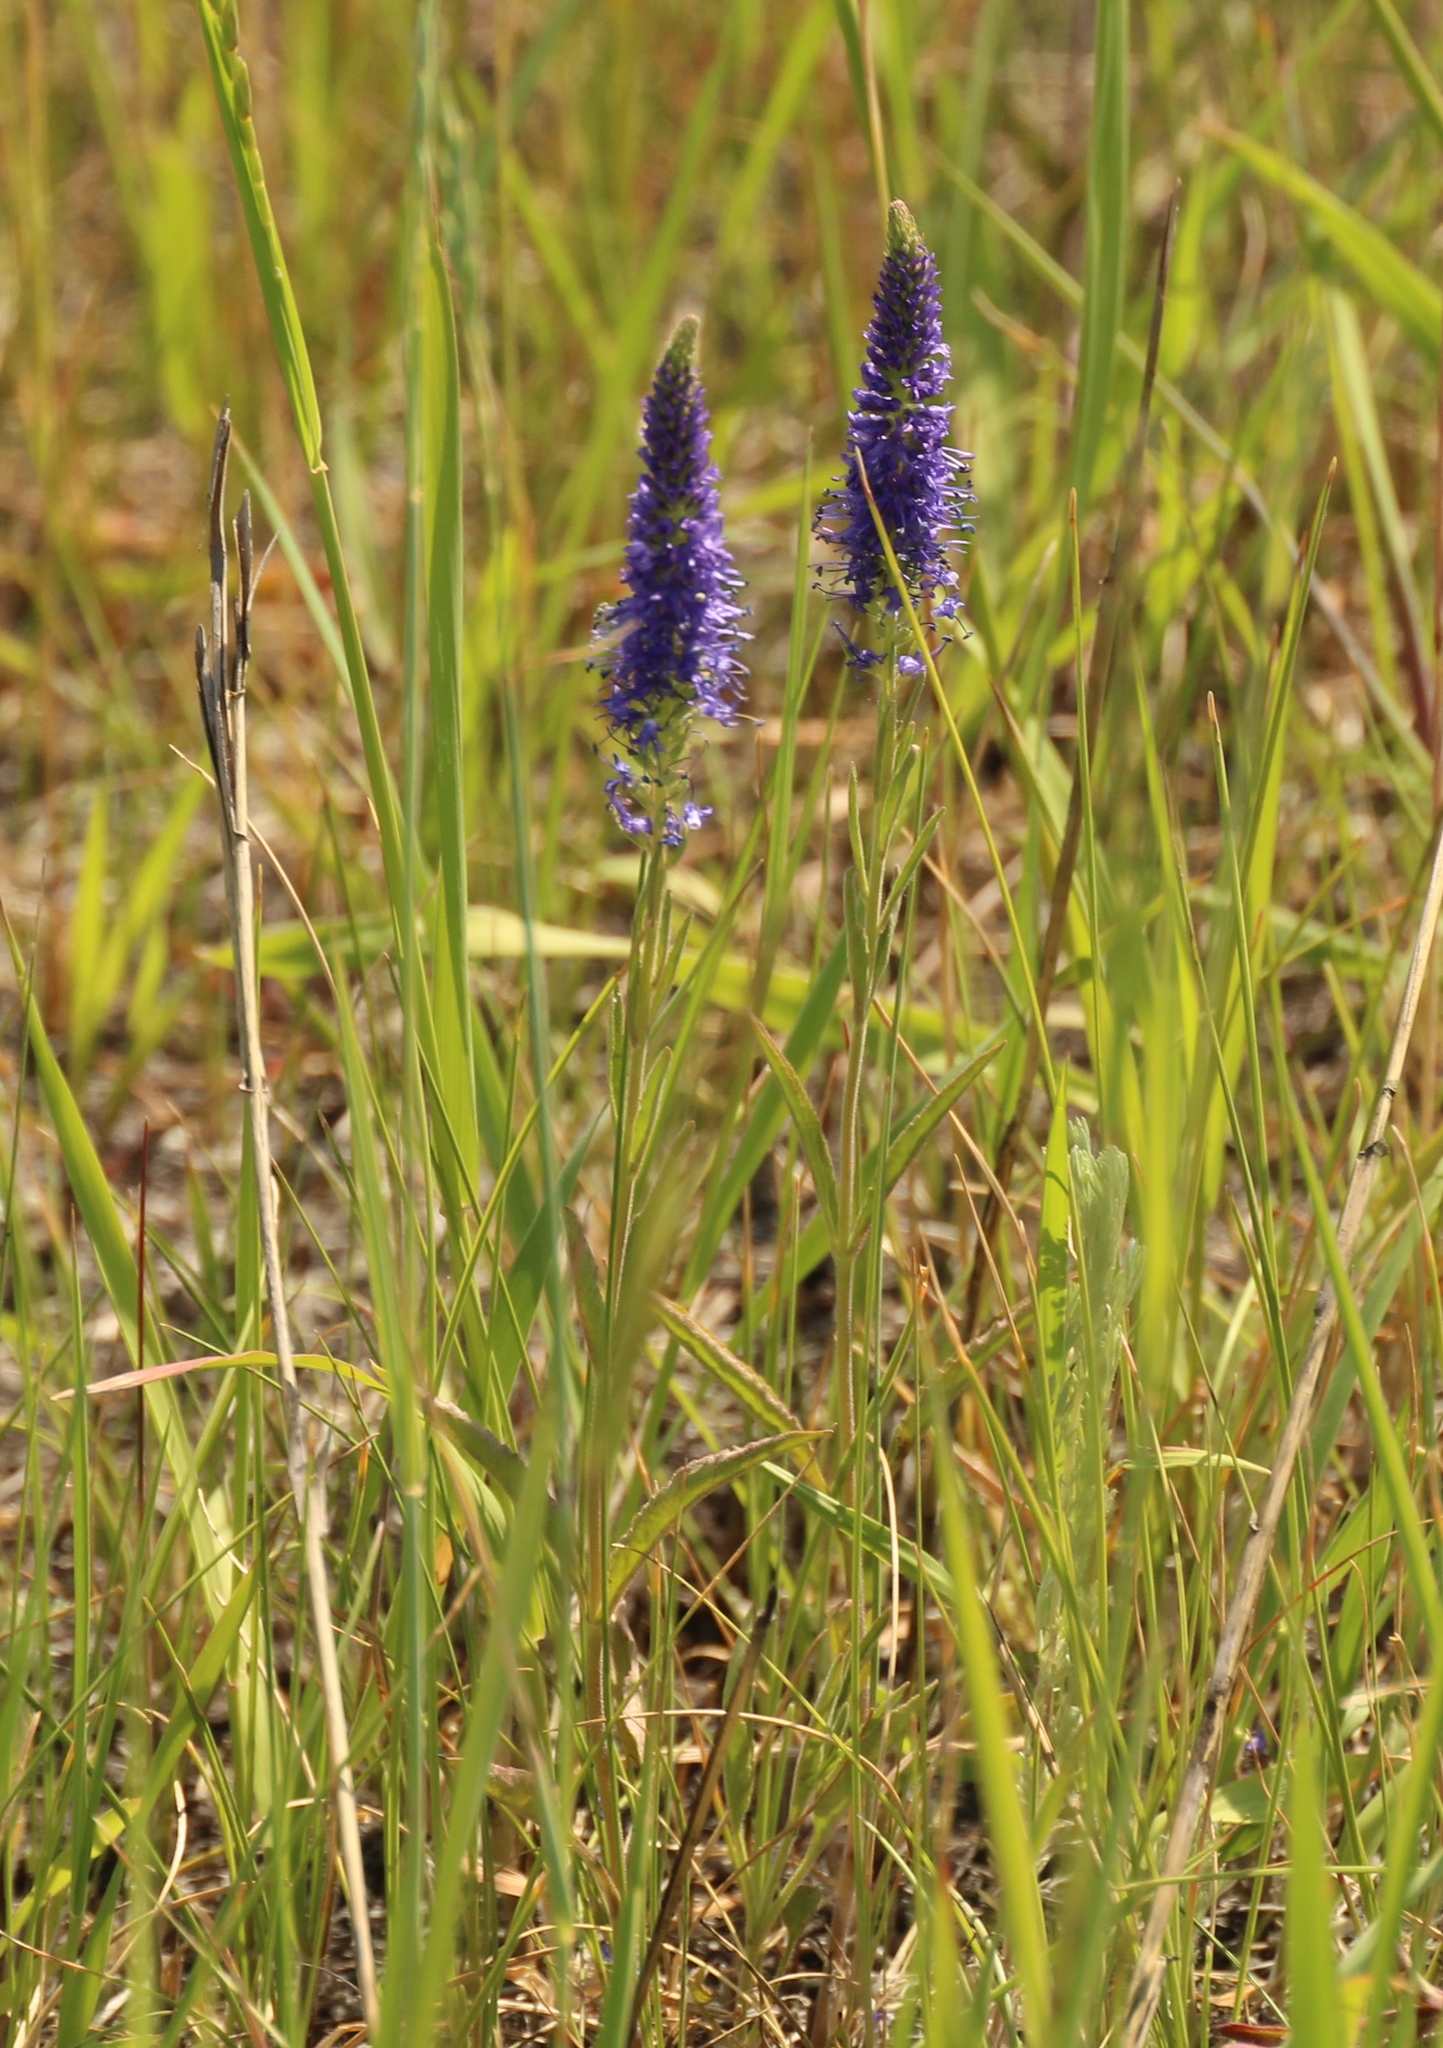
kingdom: Plantae
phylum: Tracheophyta
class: Magnoliopsida
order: Lamiales
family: Plantaginaceae
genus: Veronica
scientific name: Veronica spicata
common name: Spiked speedwell
